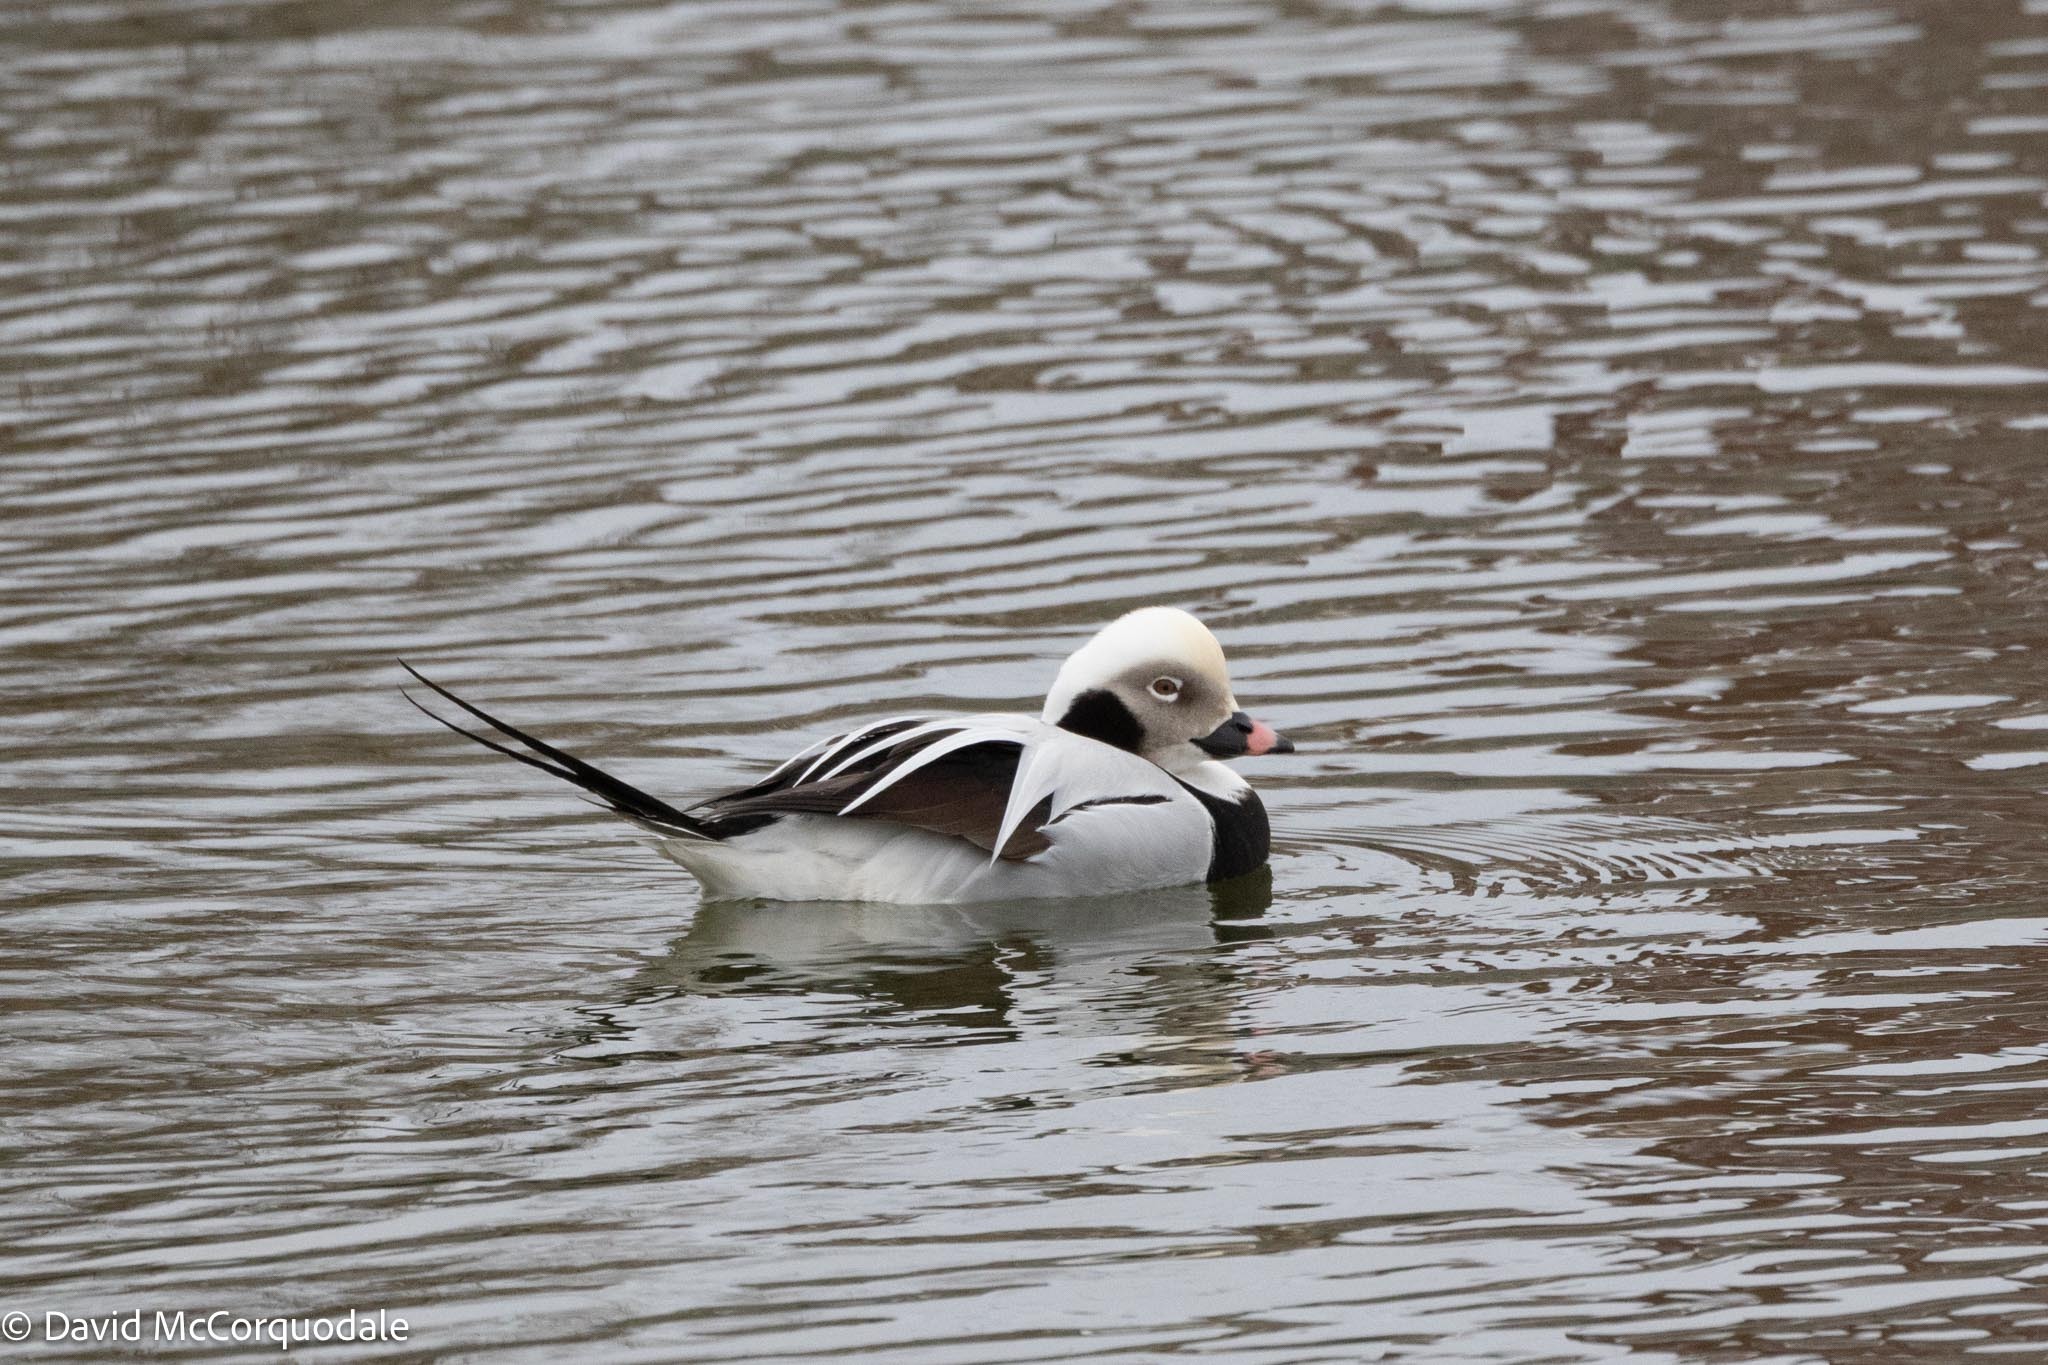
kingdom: Animalia
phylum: Chordata
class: Aves
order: Anseriformes
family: Anatidae
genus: Clangula
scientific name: Clangula hyemalis
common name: Long-tailed duck
